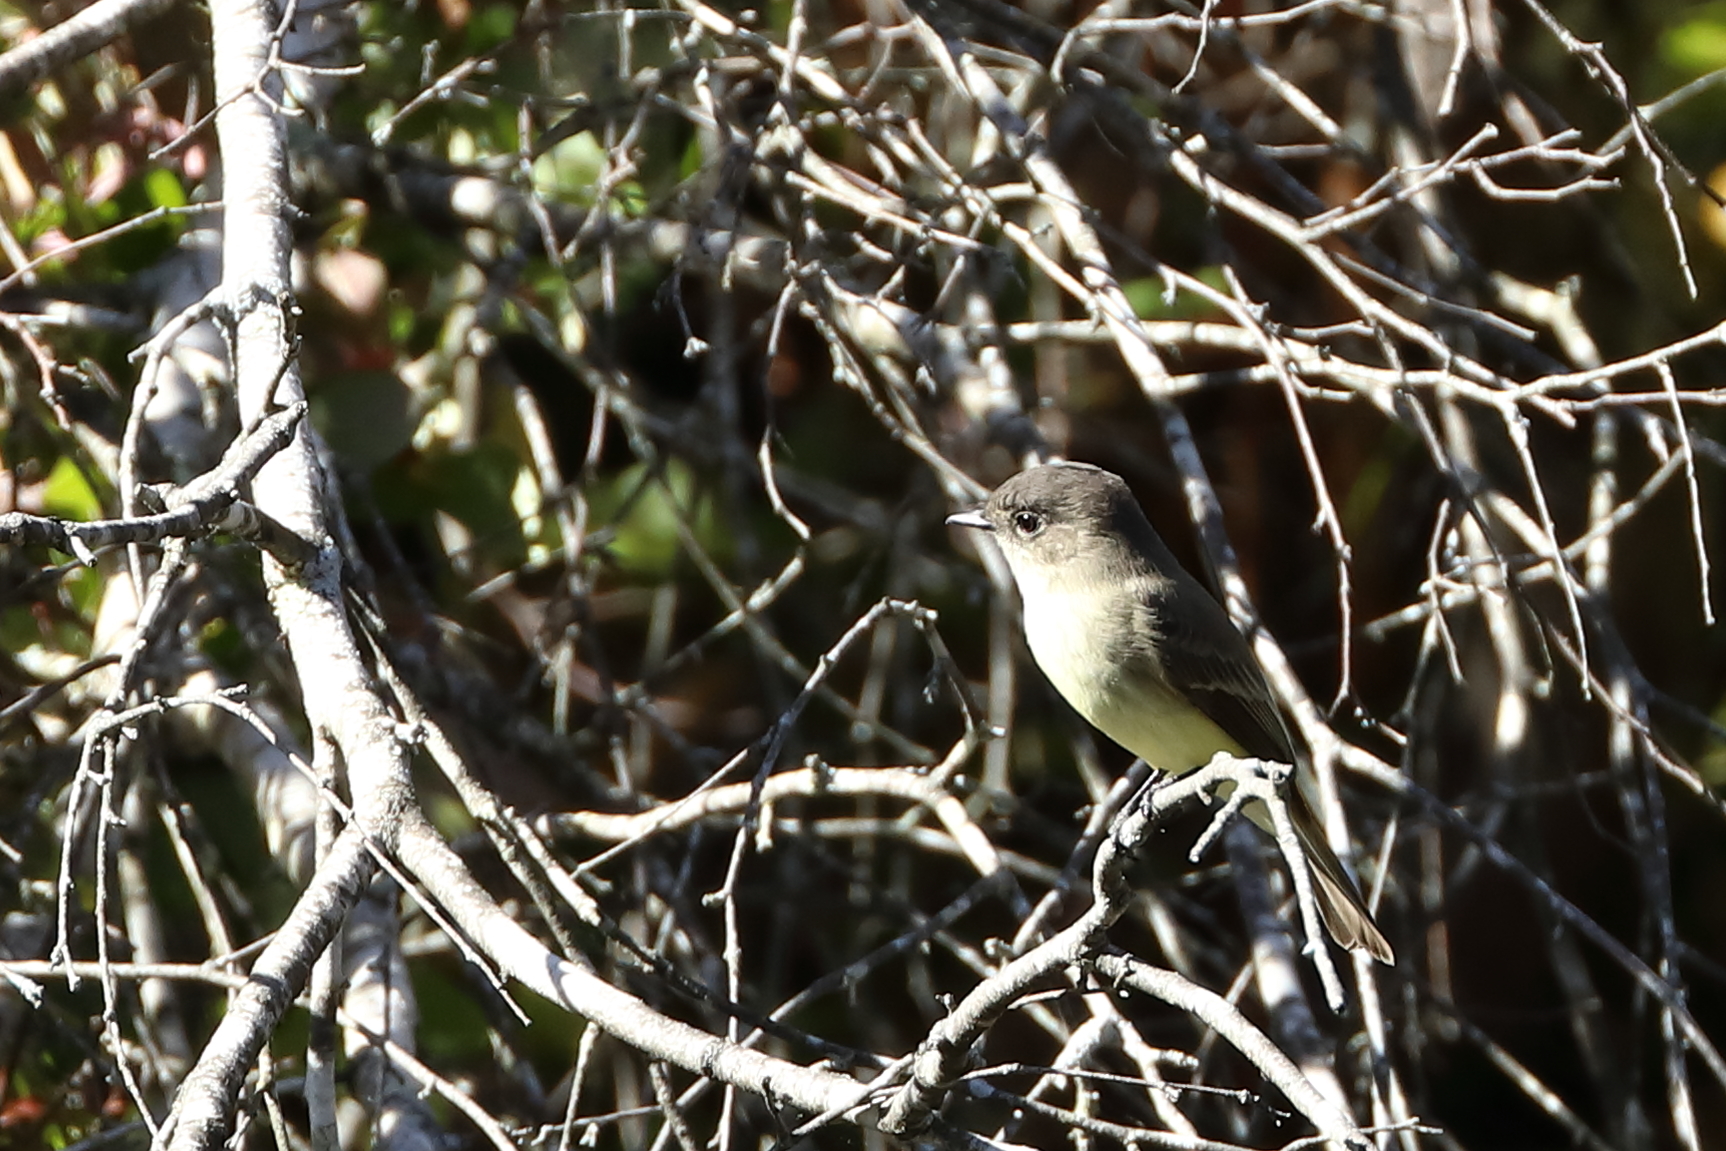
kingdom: Animalia
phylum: Chordata
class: Aves
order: Passeriformes
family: Tyrannidae
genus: Sayornis
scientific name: Sayornis phoebe
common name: Eastern phoebe
